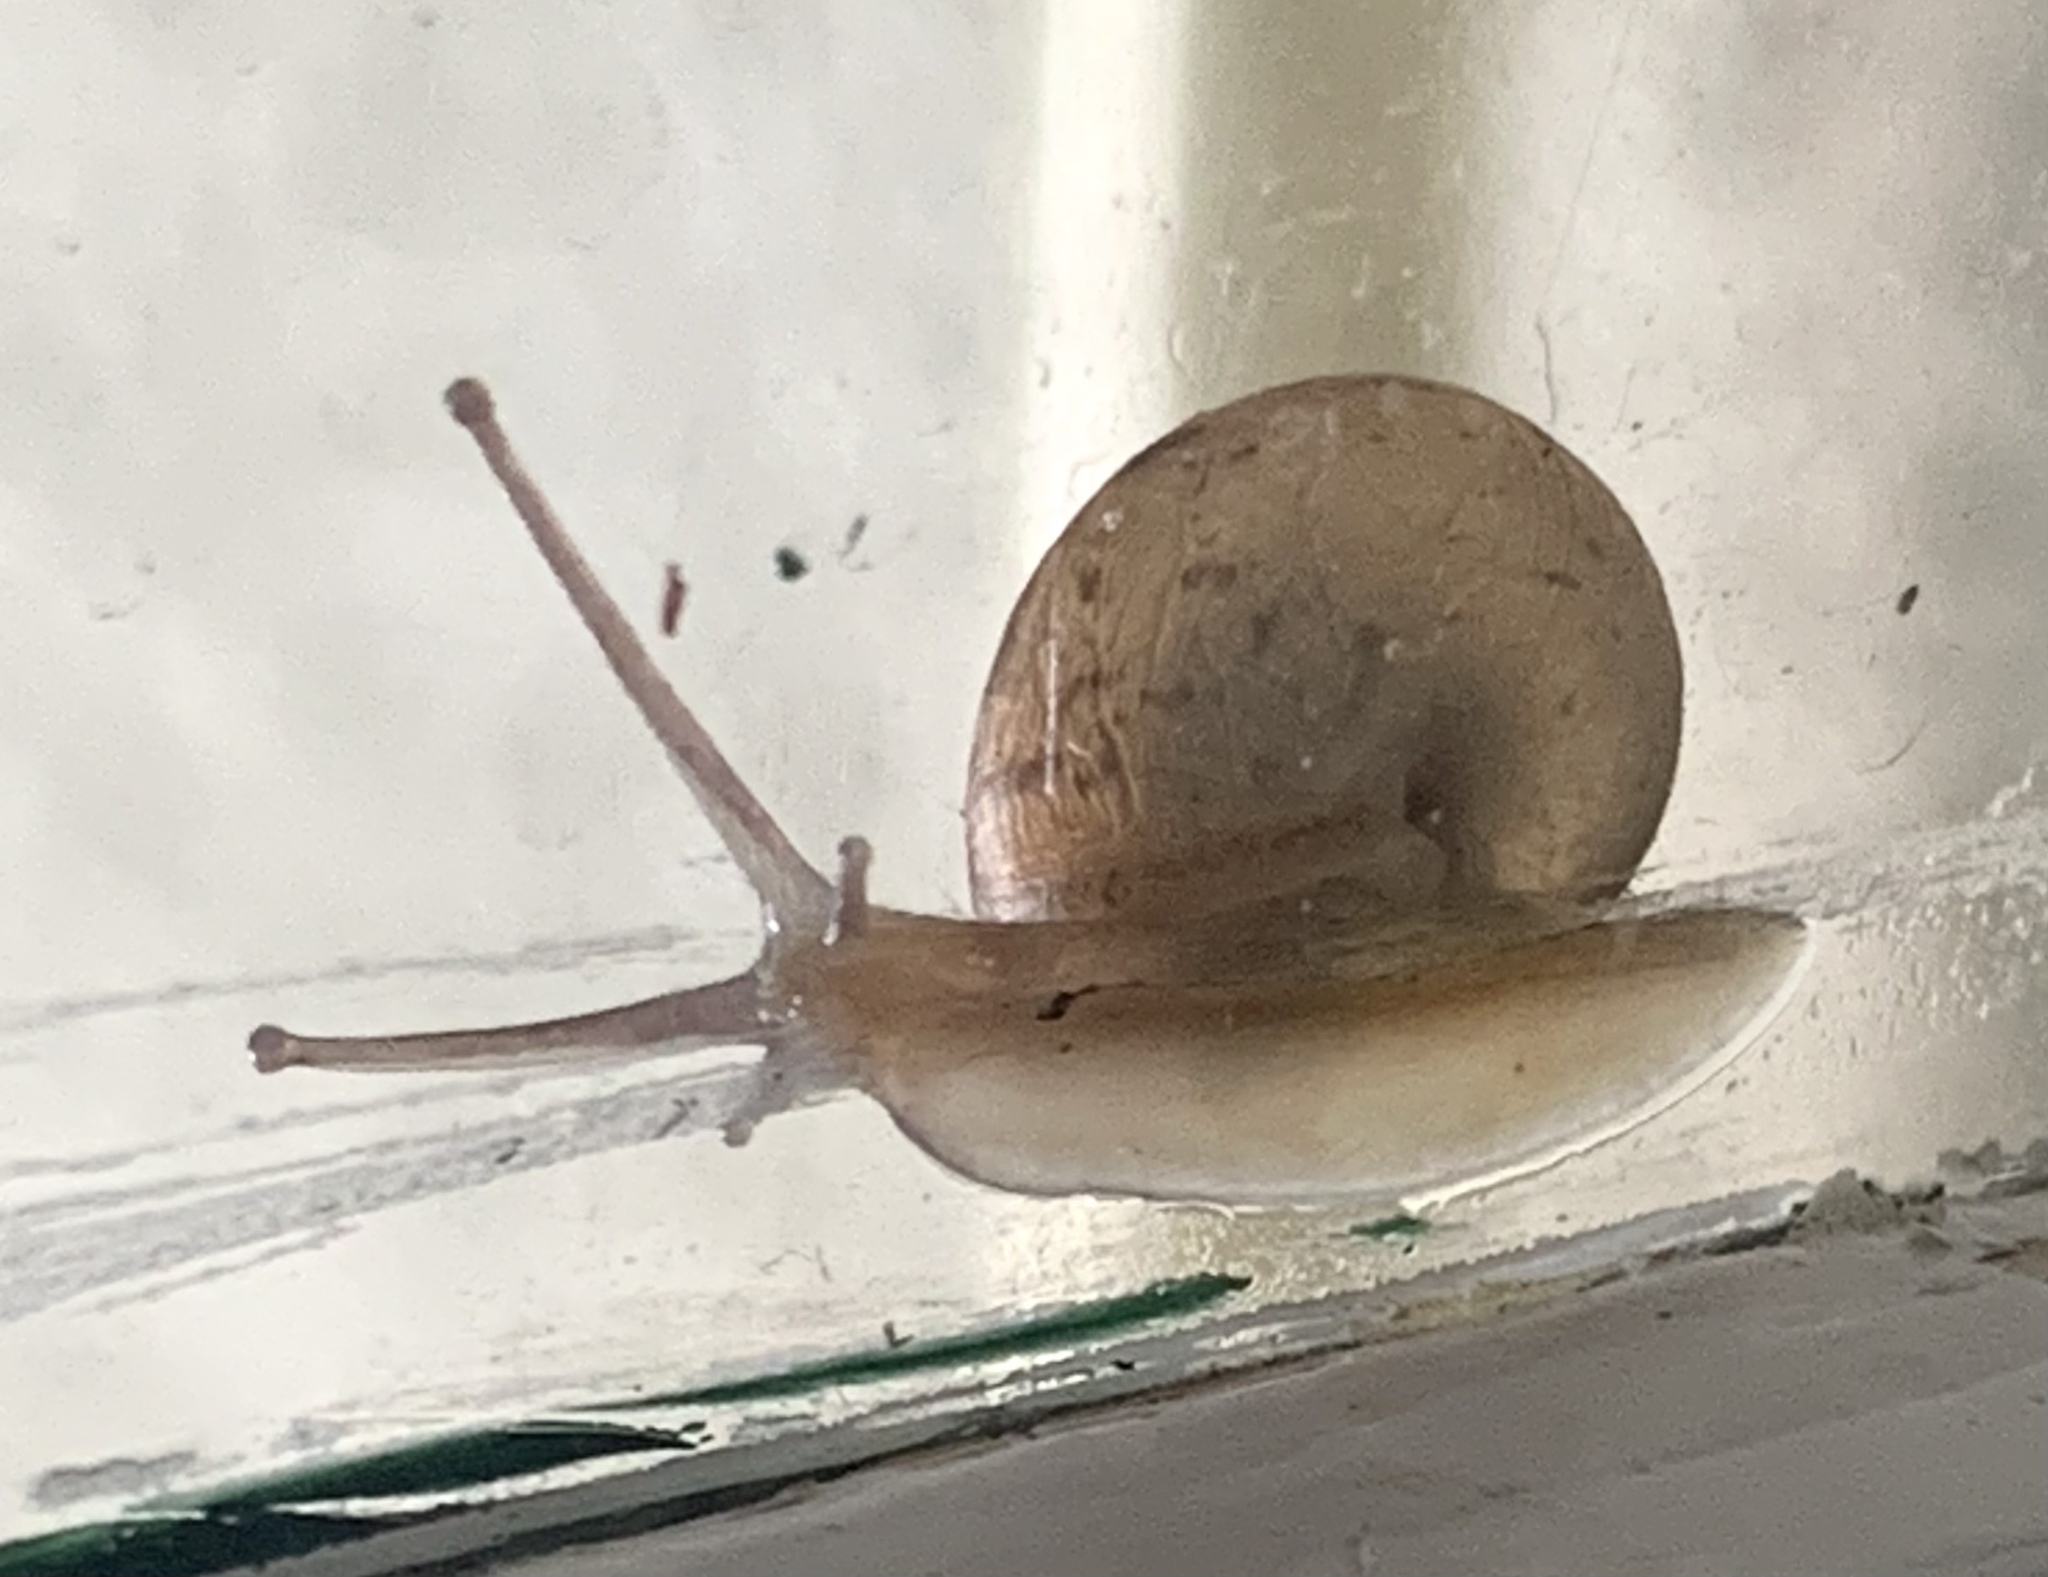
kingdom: Animalia
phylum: Mollusca
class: Gastropoda
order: Stylommatophora
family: Camaenidae
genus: Bradybaena
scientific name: Bradybaena similaris
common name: Asian trampsnail
